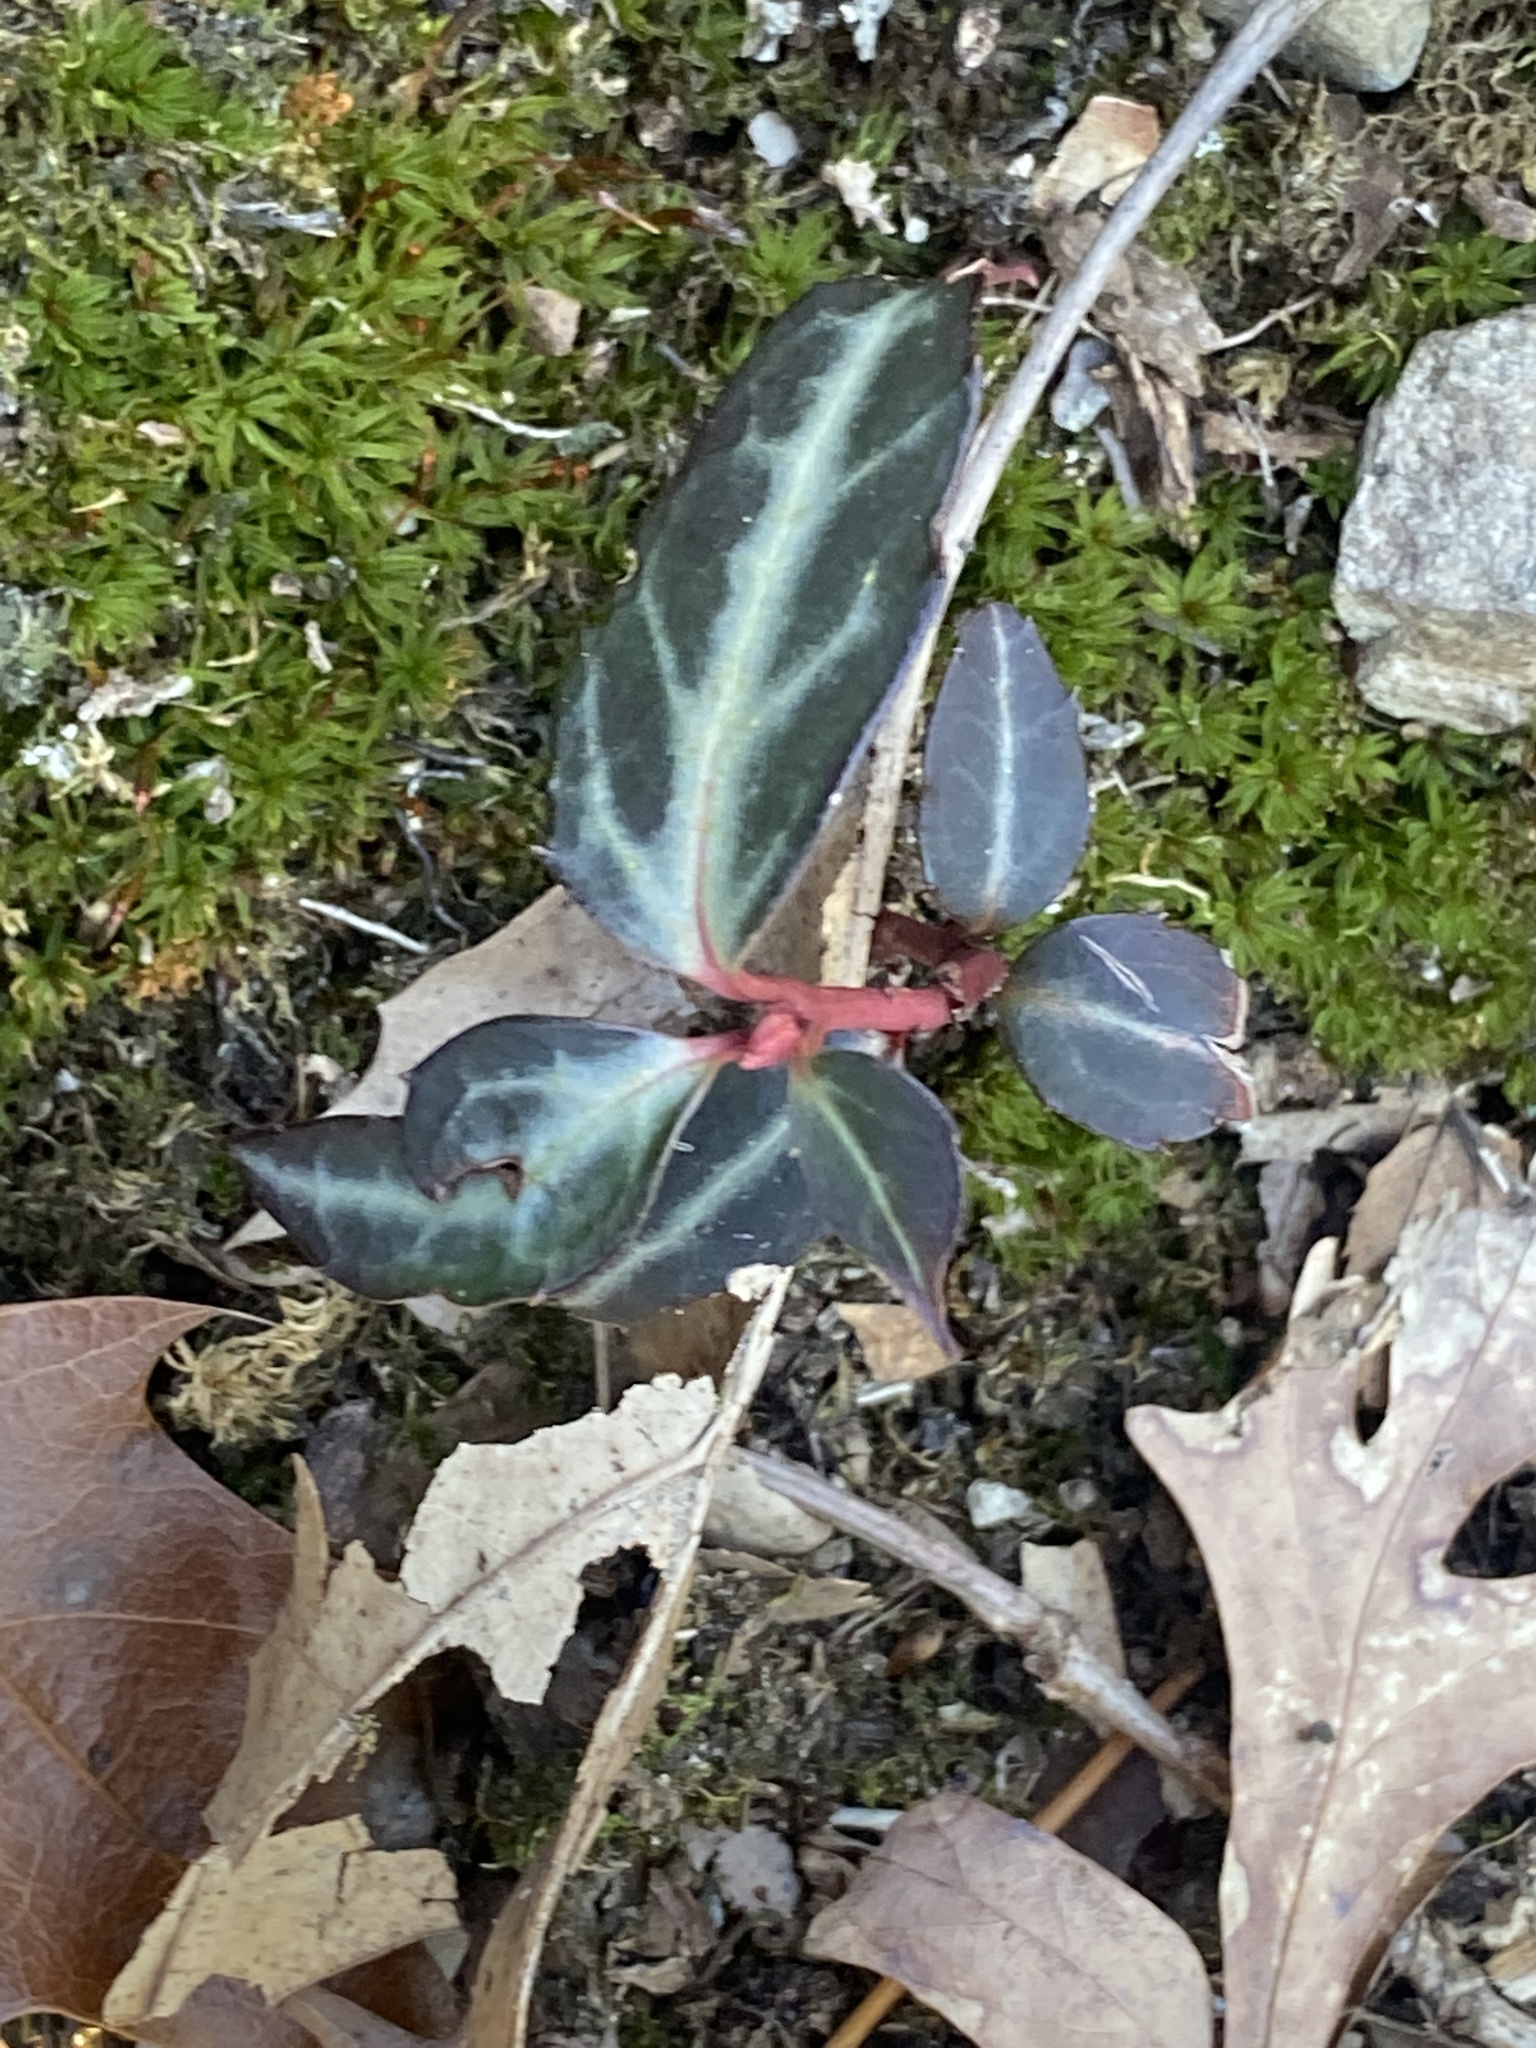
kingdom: Plantae
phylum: Tracheophyta
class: Magnoliopsida
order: Ericales
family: Ericaceae
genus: Chimaphila
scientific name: Chimaphila maculata
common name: Spotted pipsissewa
